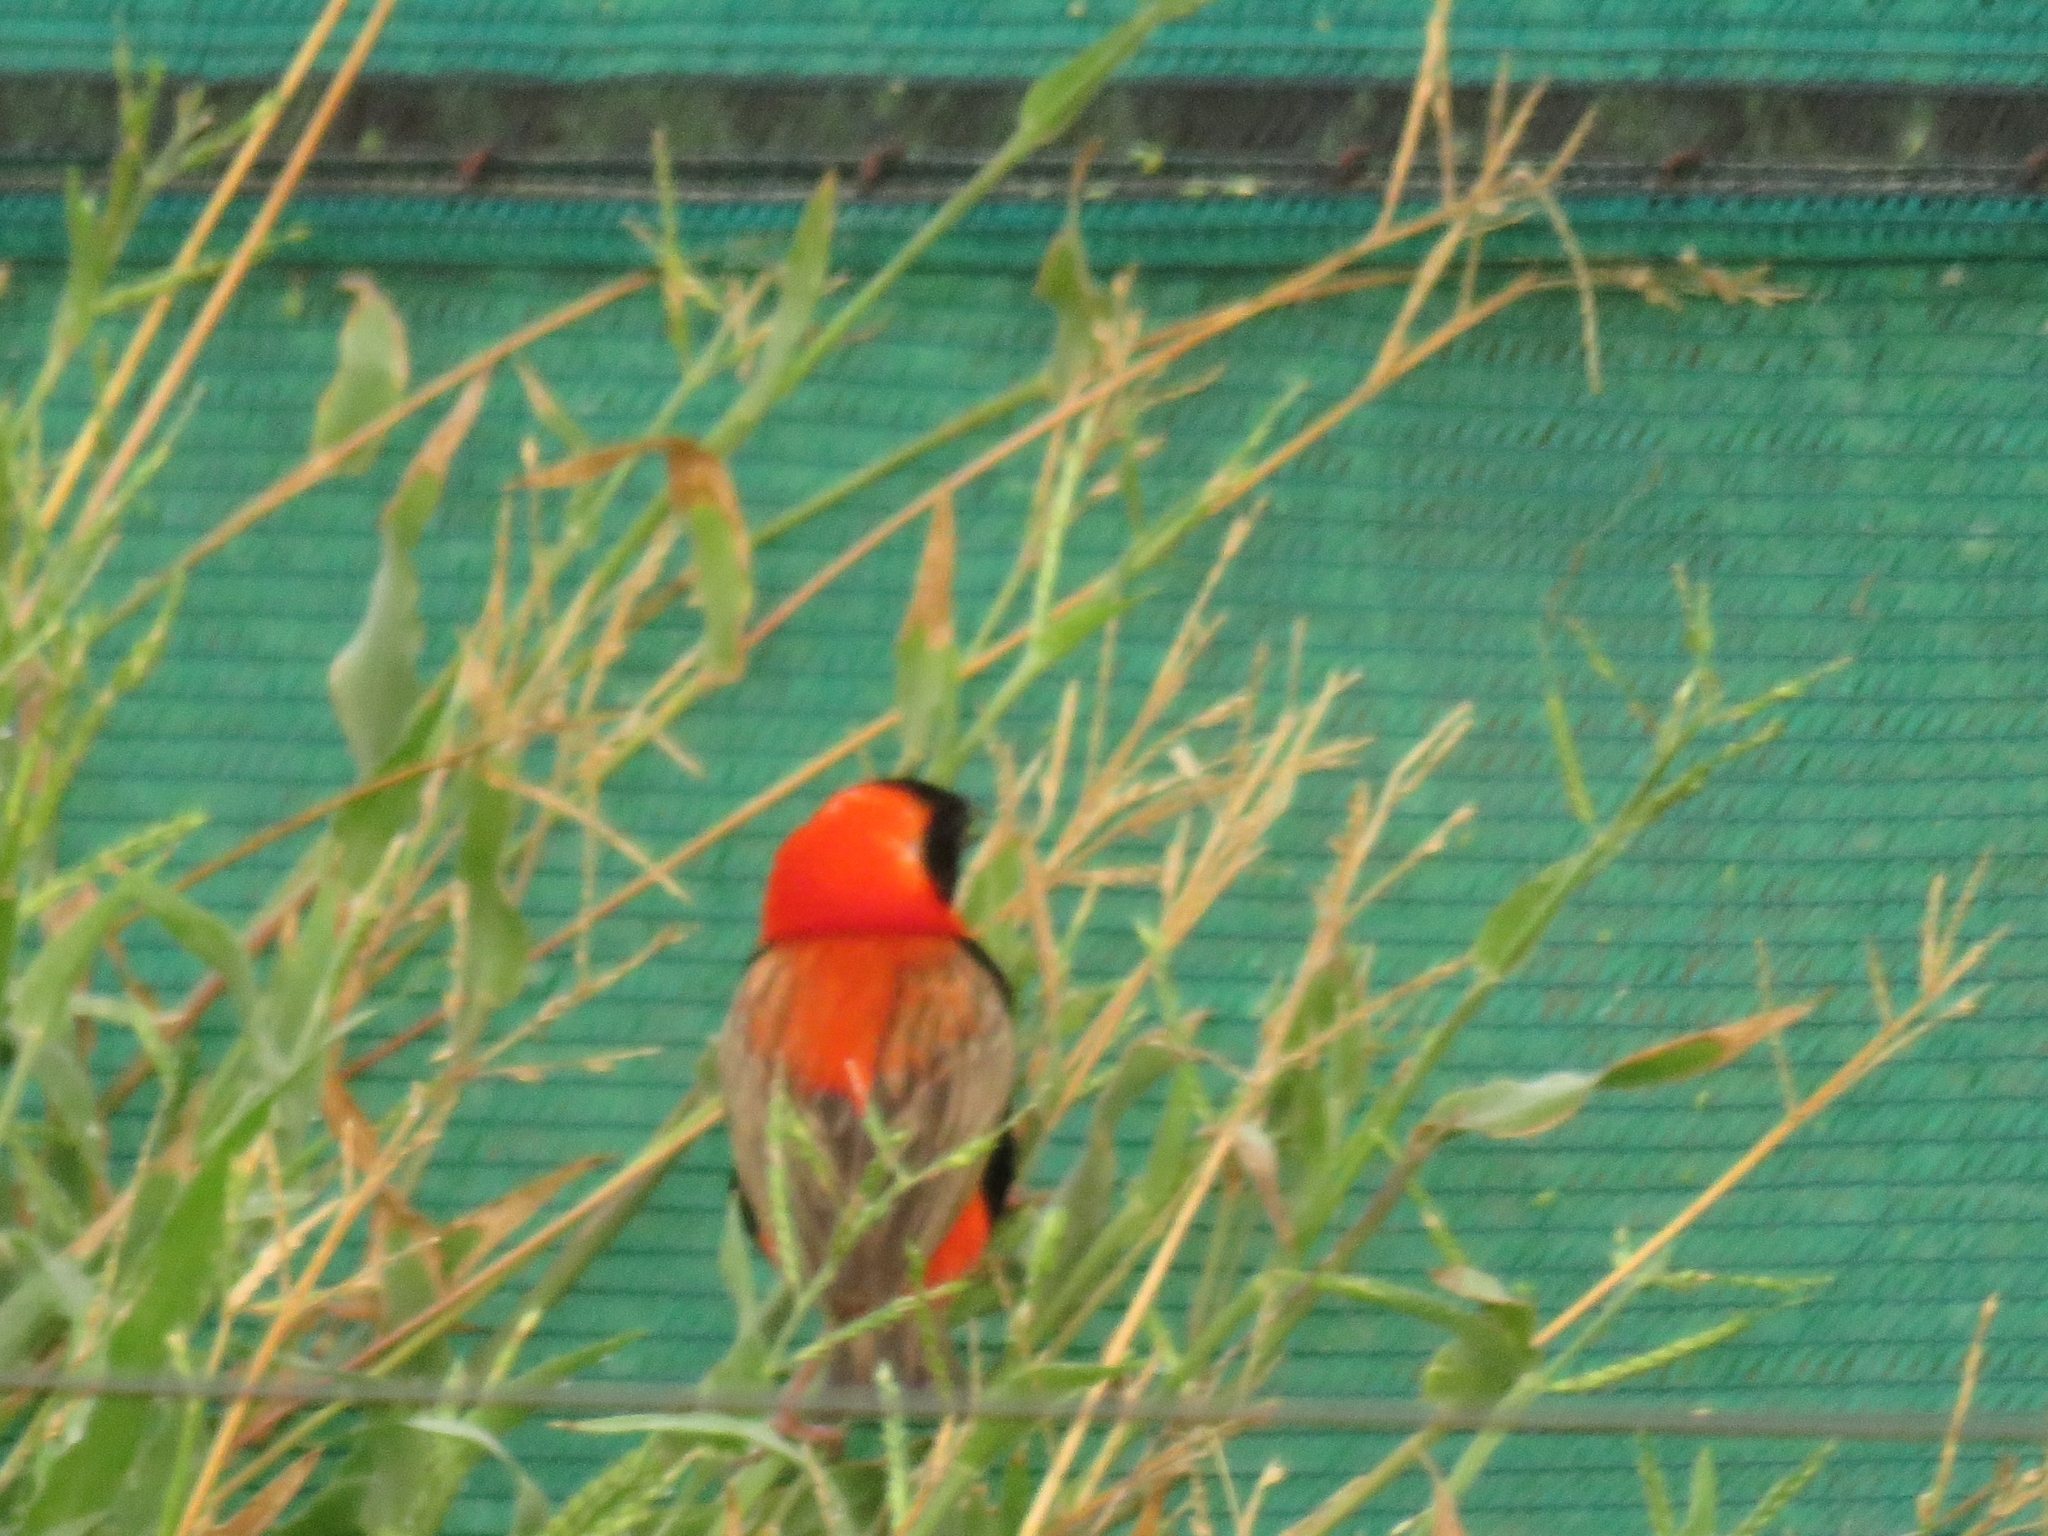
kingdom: Animalia
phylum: Chordata
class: Aves
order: Passeriformes
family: Ploceidae
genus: Euplectes
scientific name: Euplectes orix
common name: Southern red bishop
